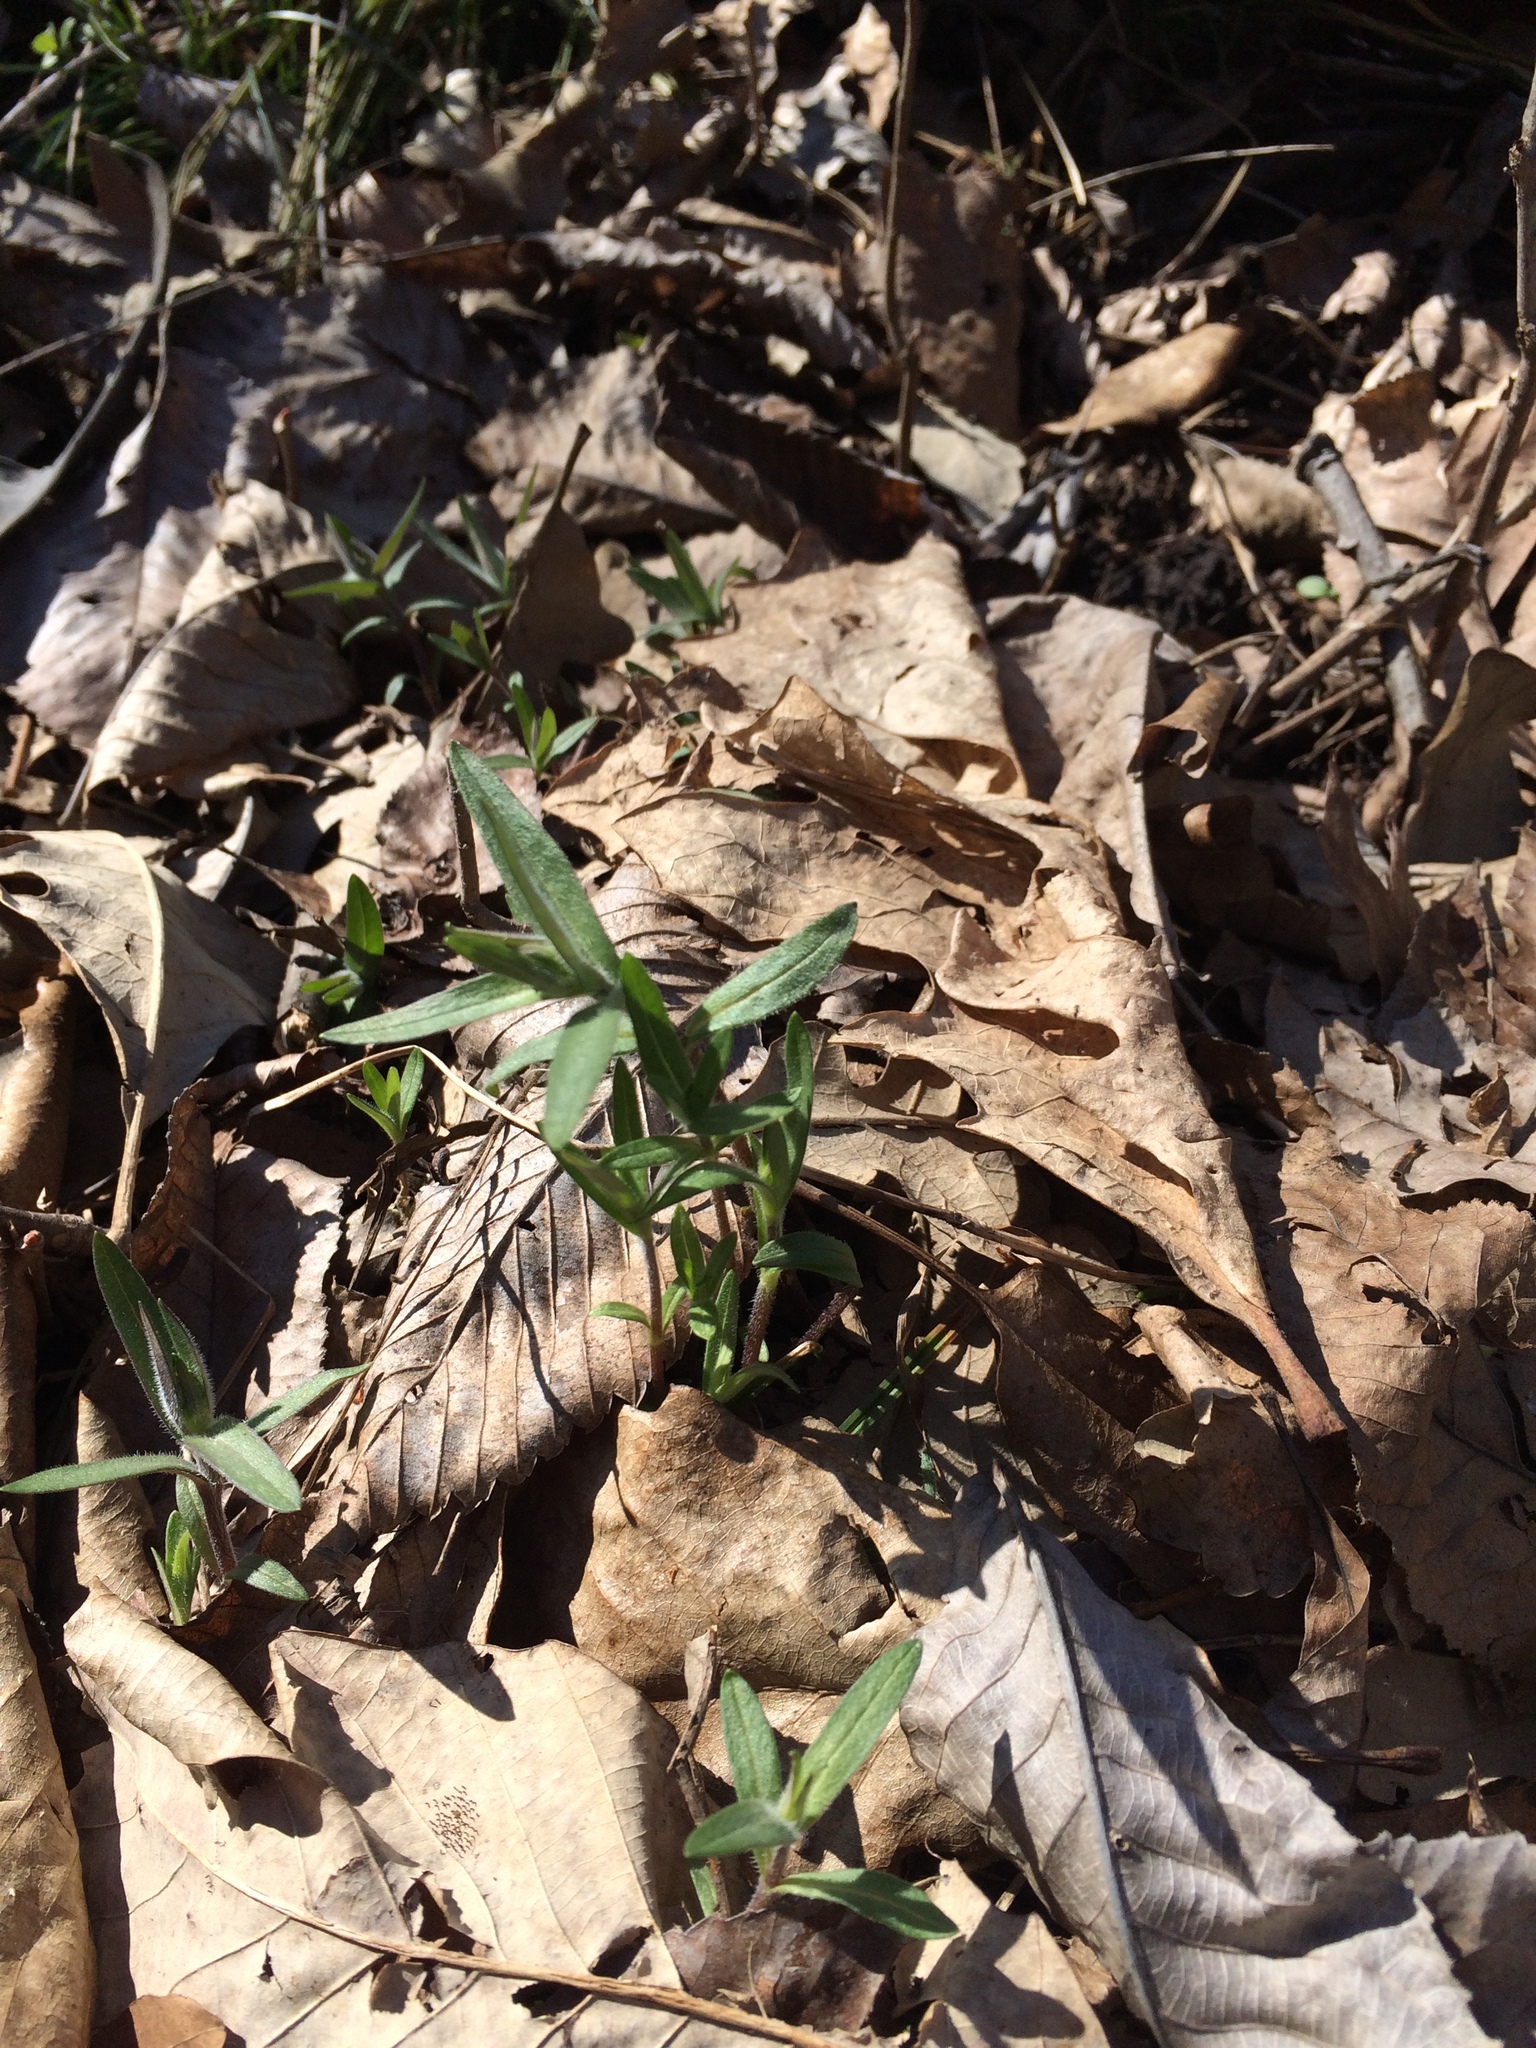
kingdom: Plantae
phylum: Tracheophyta
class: Magnoliopsida
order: Ericales
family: Polemoniaceae
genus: Phlox
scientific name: Phlox divaricata
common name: Blue phlox
